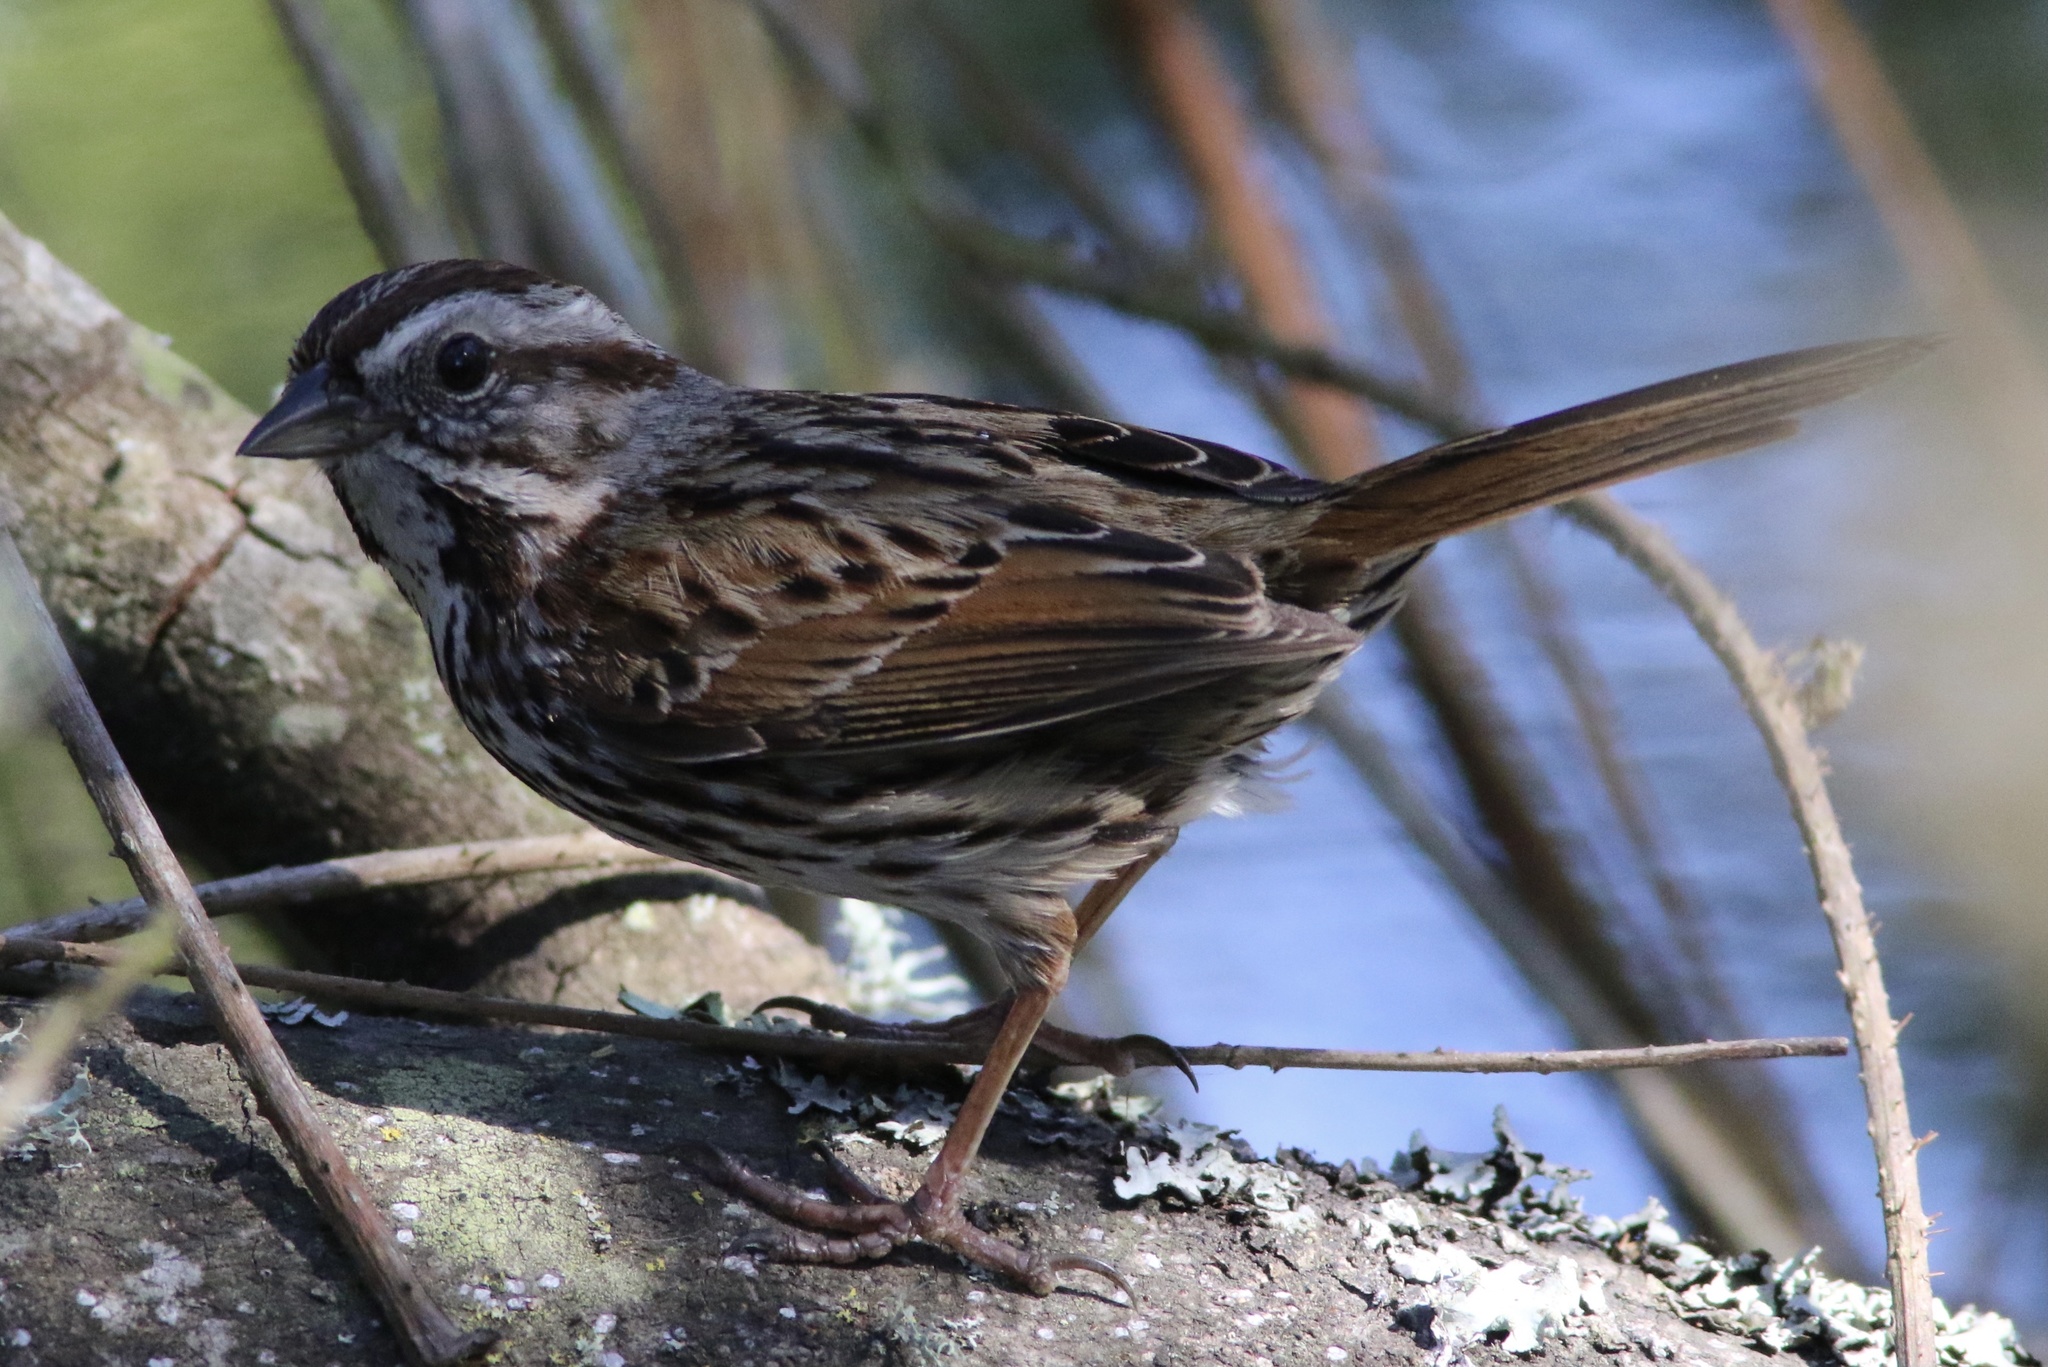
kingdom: Animalia
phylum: Chordata
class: Aves
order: Passeriformes
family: Passerellidae
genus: Melospiza
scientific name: Melospiza melodia
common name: Song sparrow
